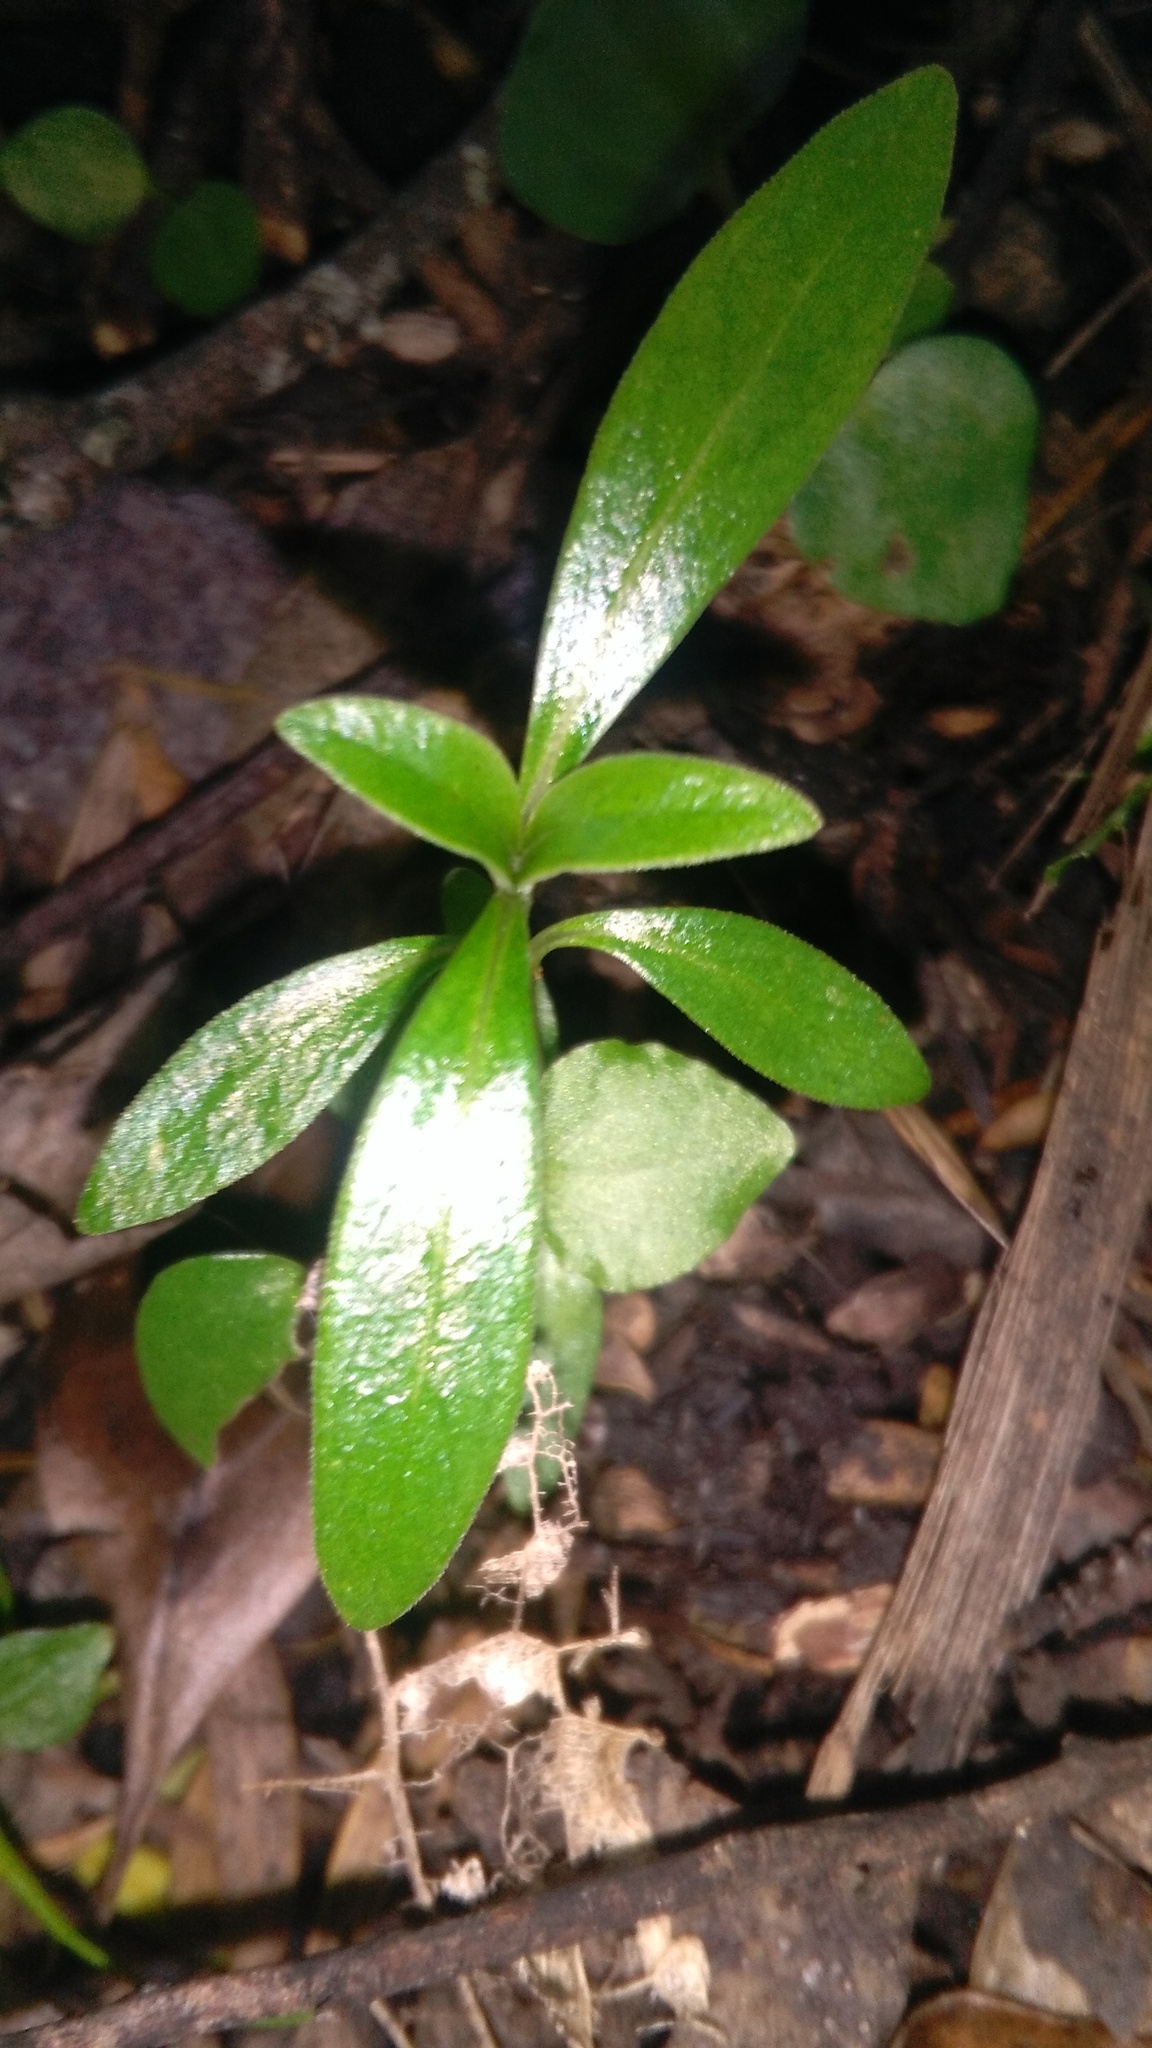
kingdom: Plantae
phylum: Tracheophyta
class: Magnoliopsida
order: Gentianales
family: Rubiaceae
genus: Coprosma
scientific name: Coprosma robusta
